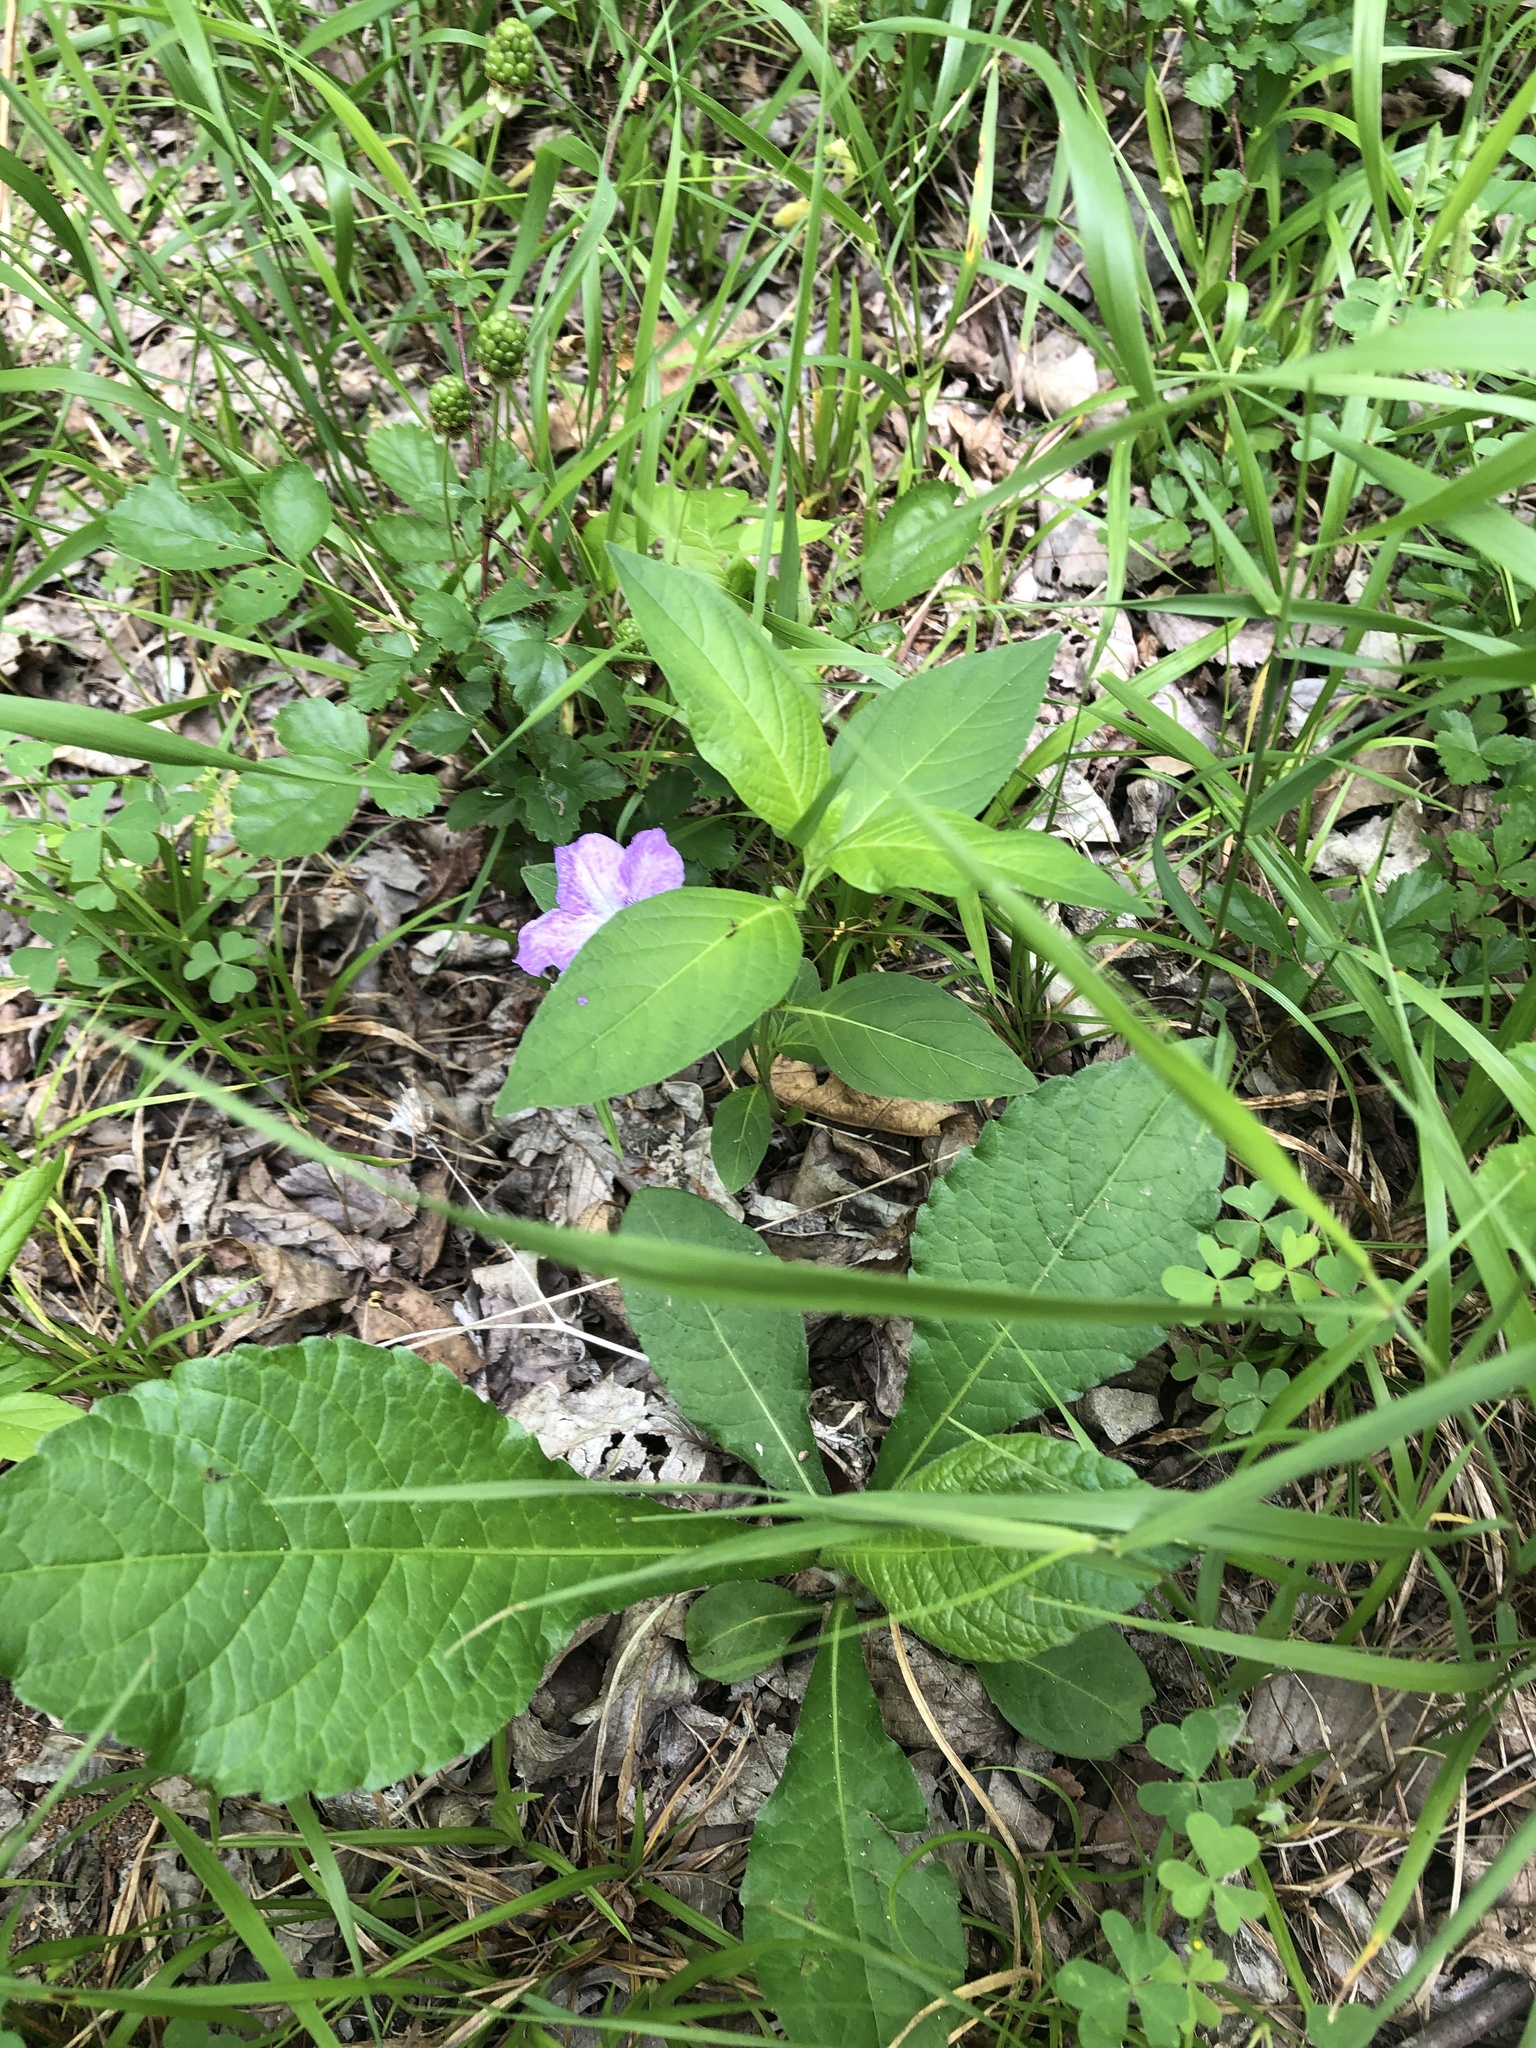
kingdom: Plantae
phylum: Tracheophyta
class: Magnoliopsida
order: Lamiales
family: Acanthaceae
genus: Ruellia
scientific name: Ruellia strepens
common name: Limestone wild petunia
